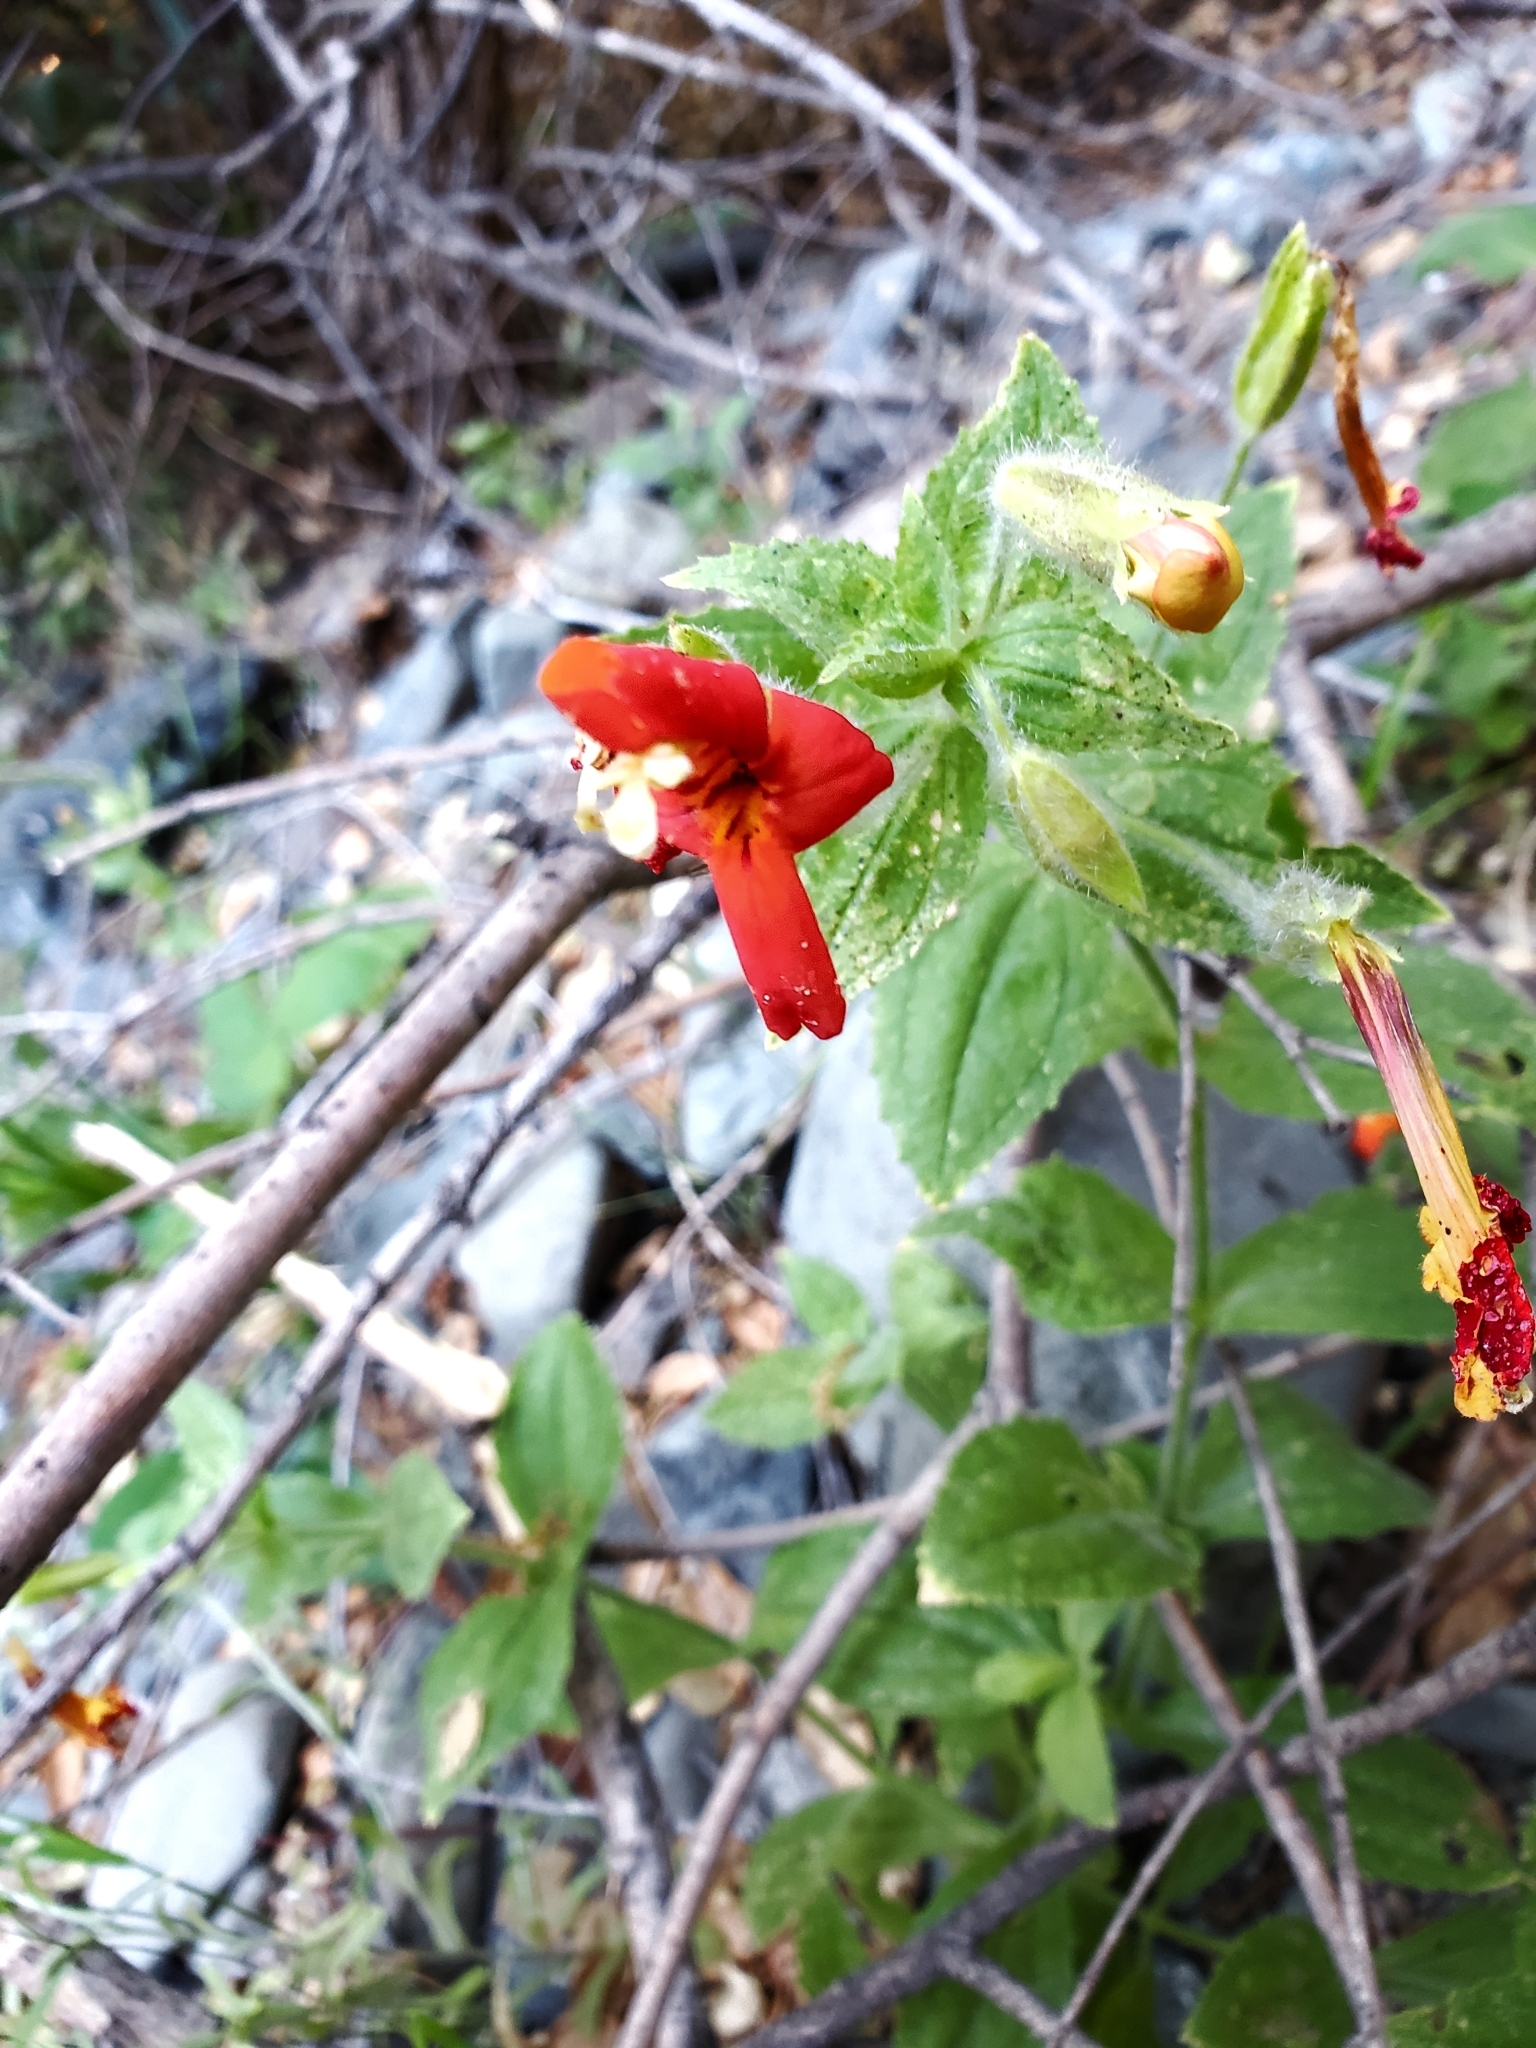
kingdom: Plantae
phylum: Tracheophyta
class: Magnoliopsida
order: Lamiales
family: Phrymaceae
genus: Erythranthe
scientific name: Erythranthe cardinalis
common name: Scarlet monkey-flower
